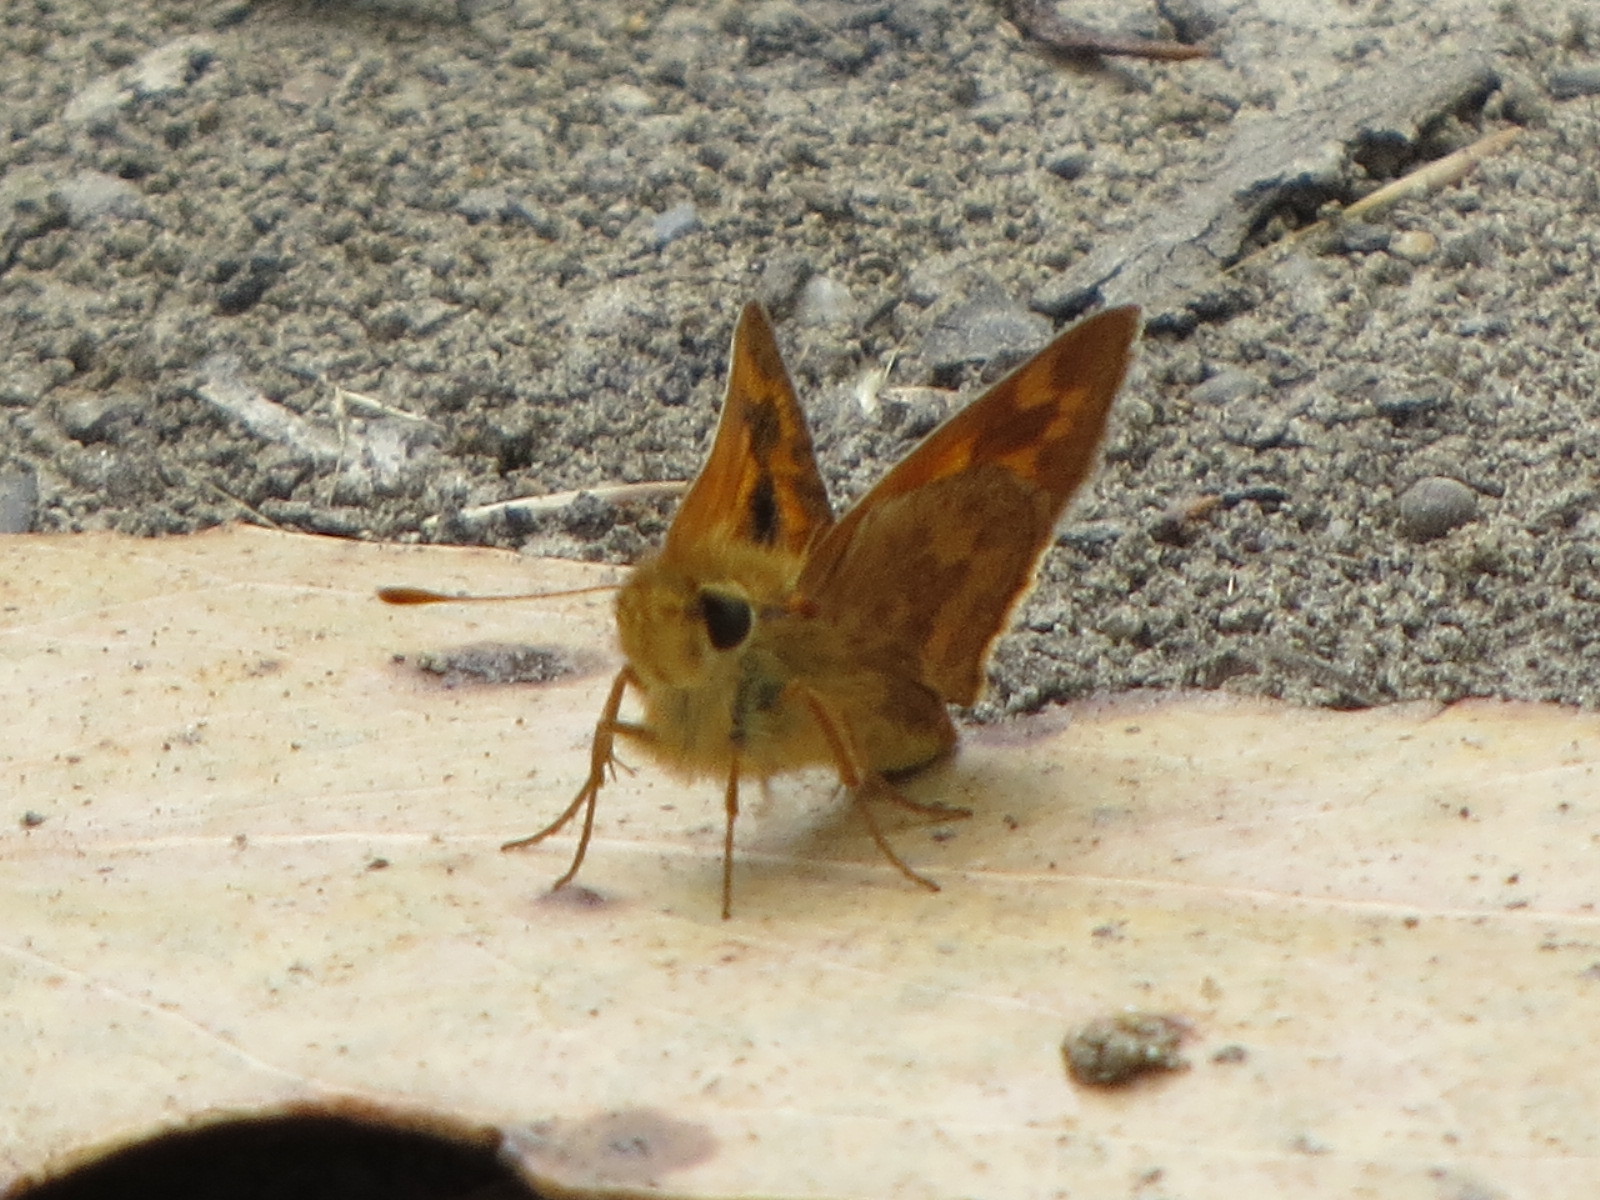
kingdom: Animalia
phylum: Arthropoda
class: Insecta
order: Lepidoptera
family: Hesperiidae
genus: Ochlodes
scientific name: Ochlodes sylvanoides
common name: Woodland skipper
